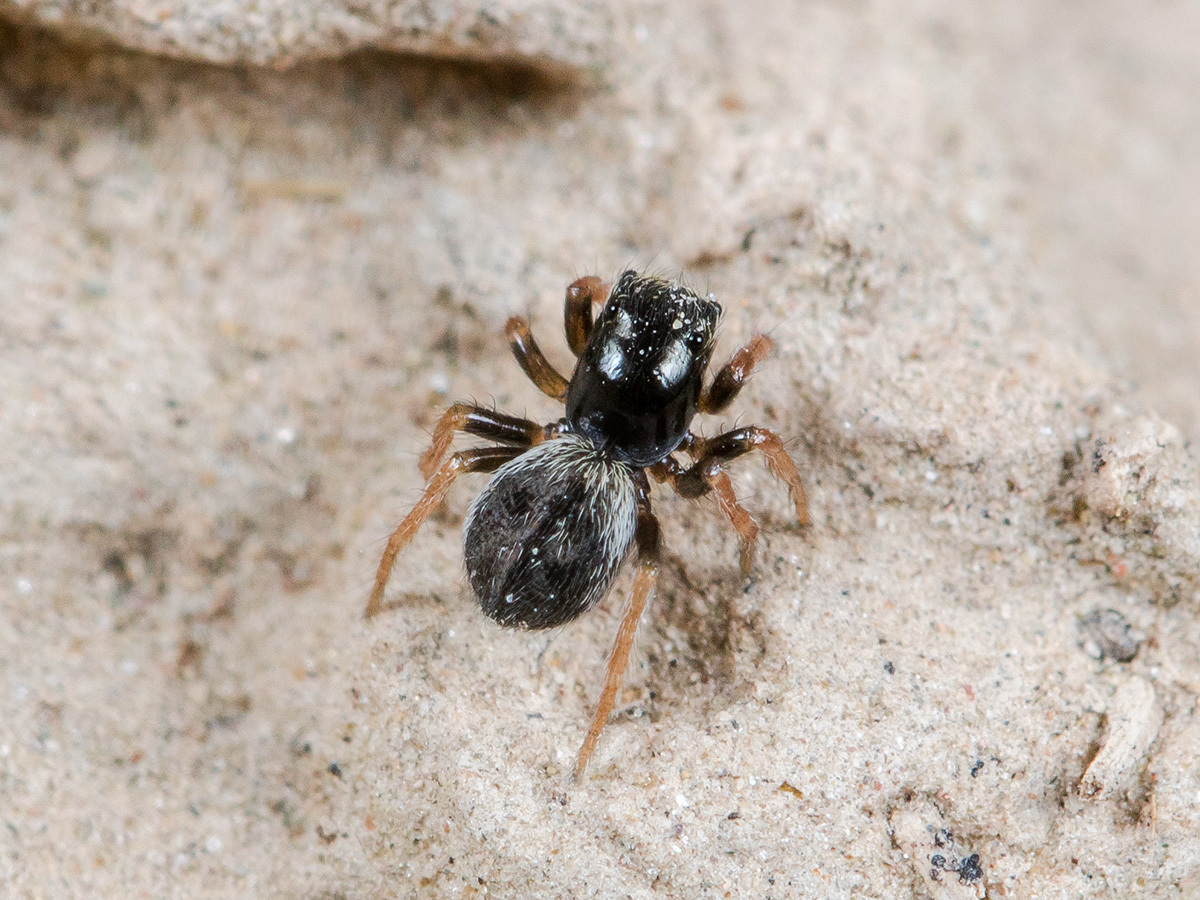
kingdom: Animalia
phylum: Arthropoda
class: Arachnida
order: Araneae
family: Salticidae
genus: Chalcoscirtus
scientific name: Chalcoscirtus karakurt
